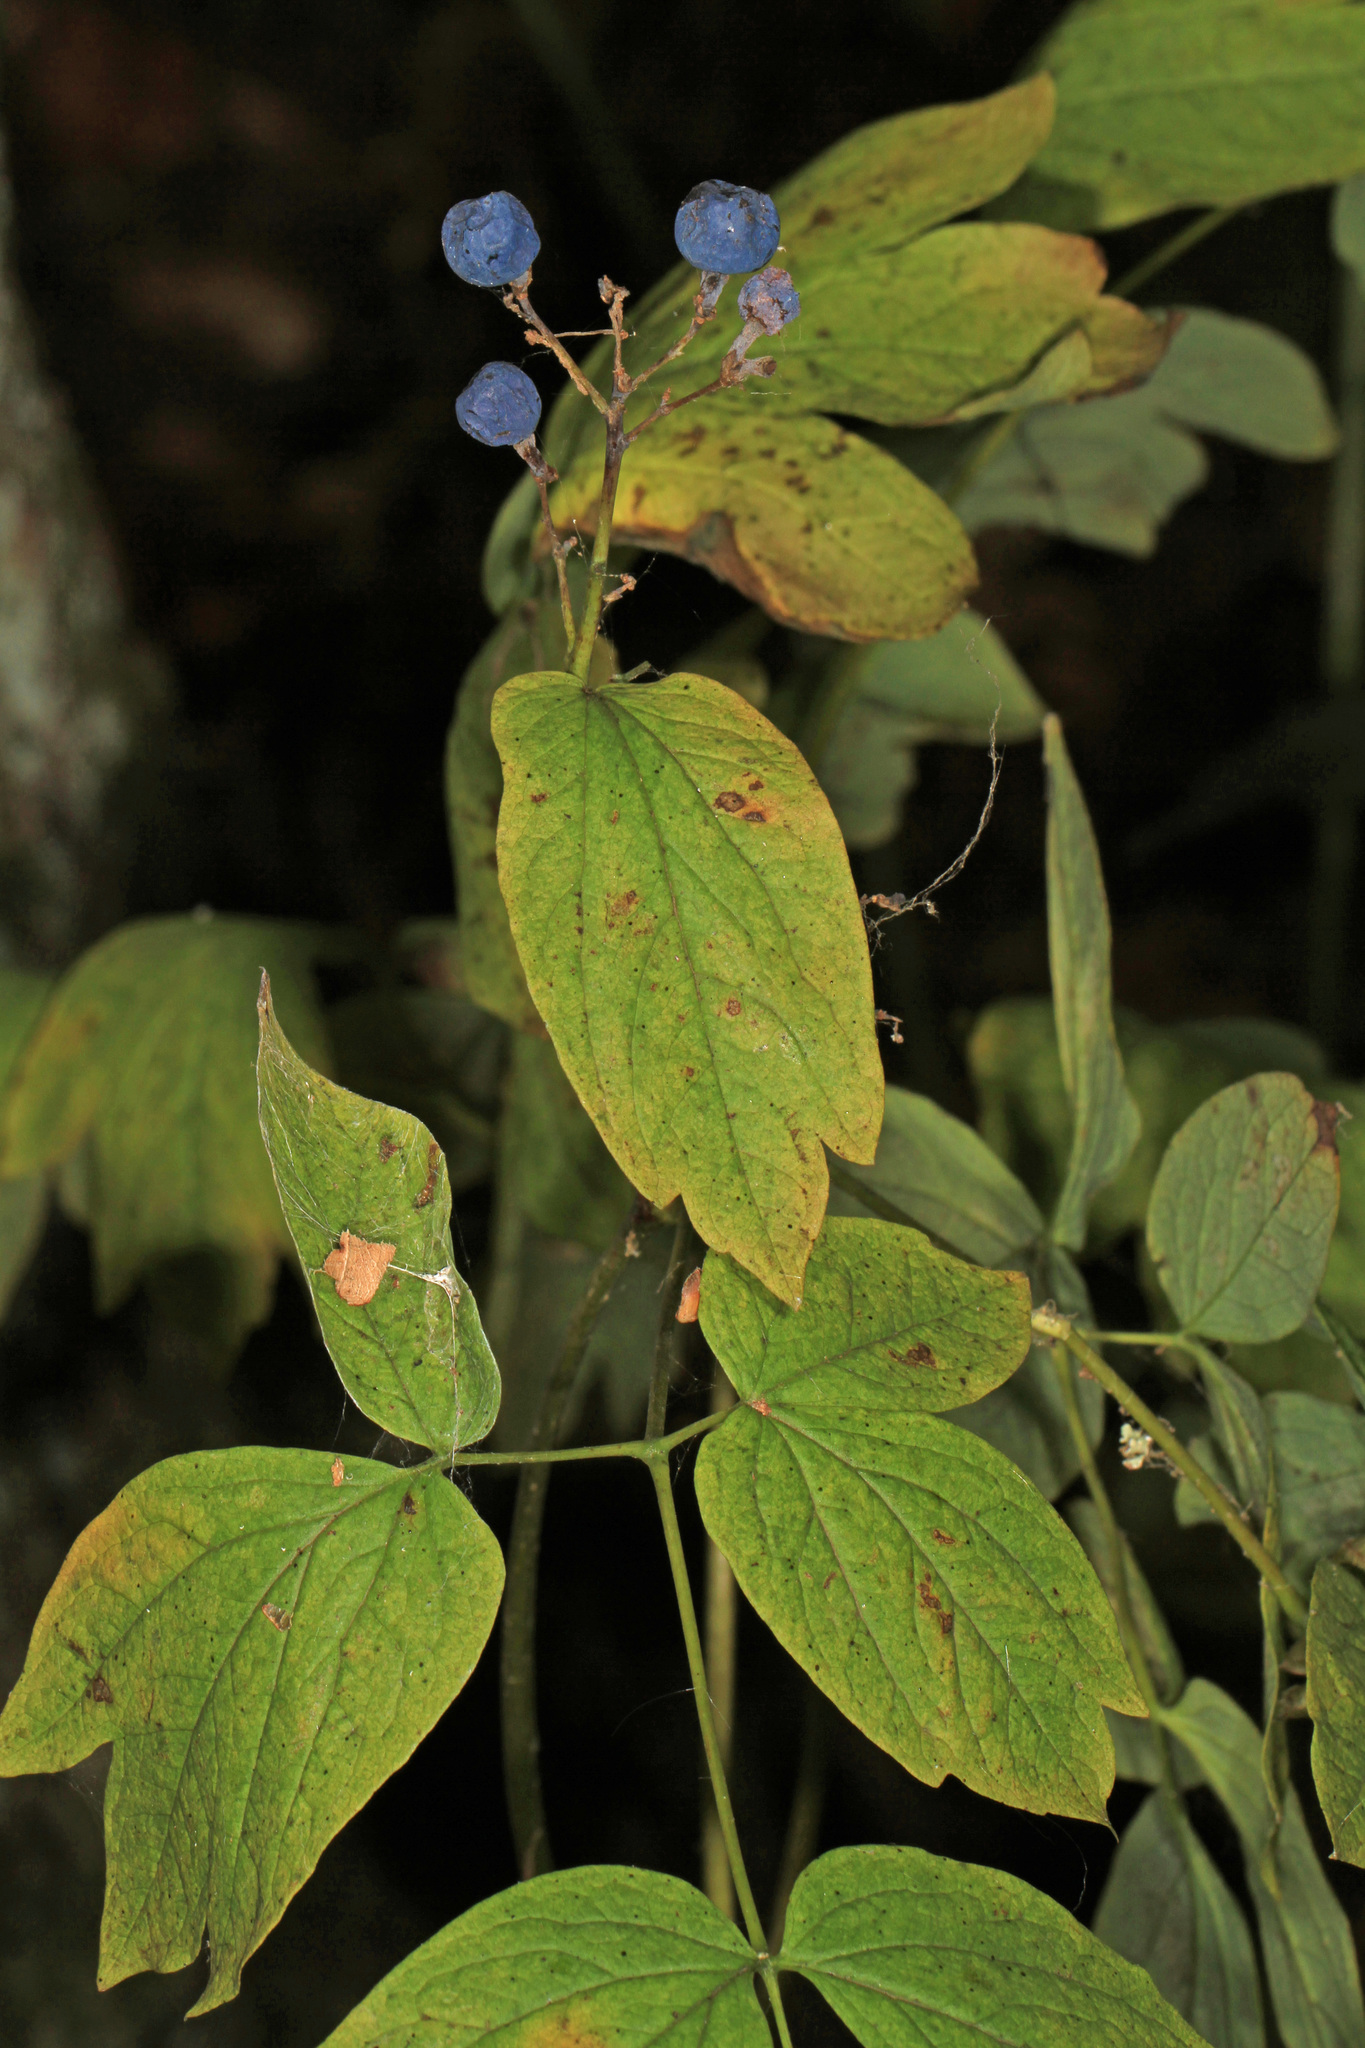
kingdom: Plantae
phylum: Tracheophyta
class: Magnoliopsida
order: Ranunculales
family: Berberidaceae
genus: Caulophyllum
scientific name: Caulophyllum thalictroides
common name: Blue cohosh
